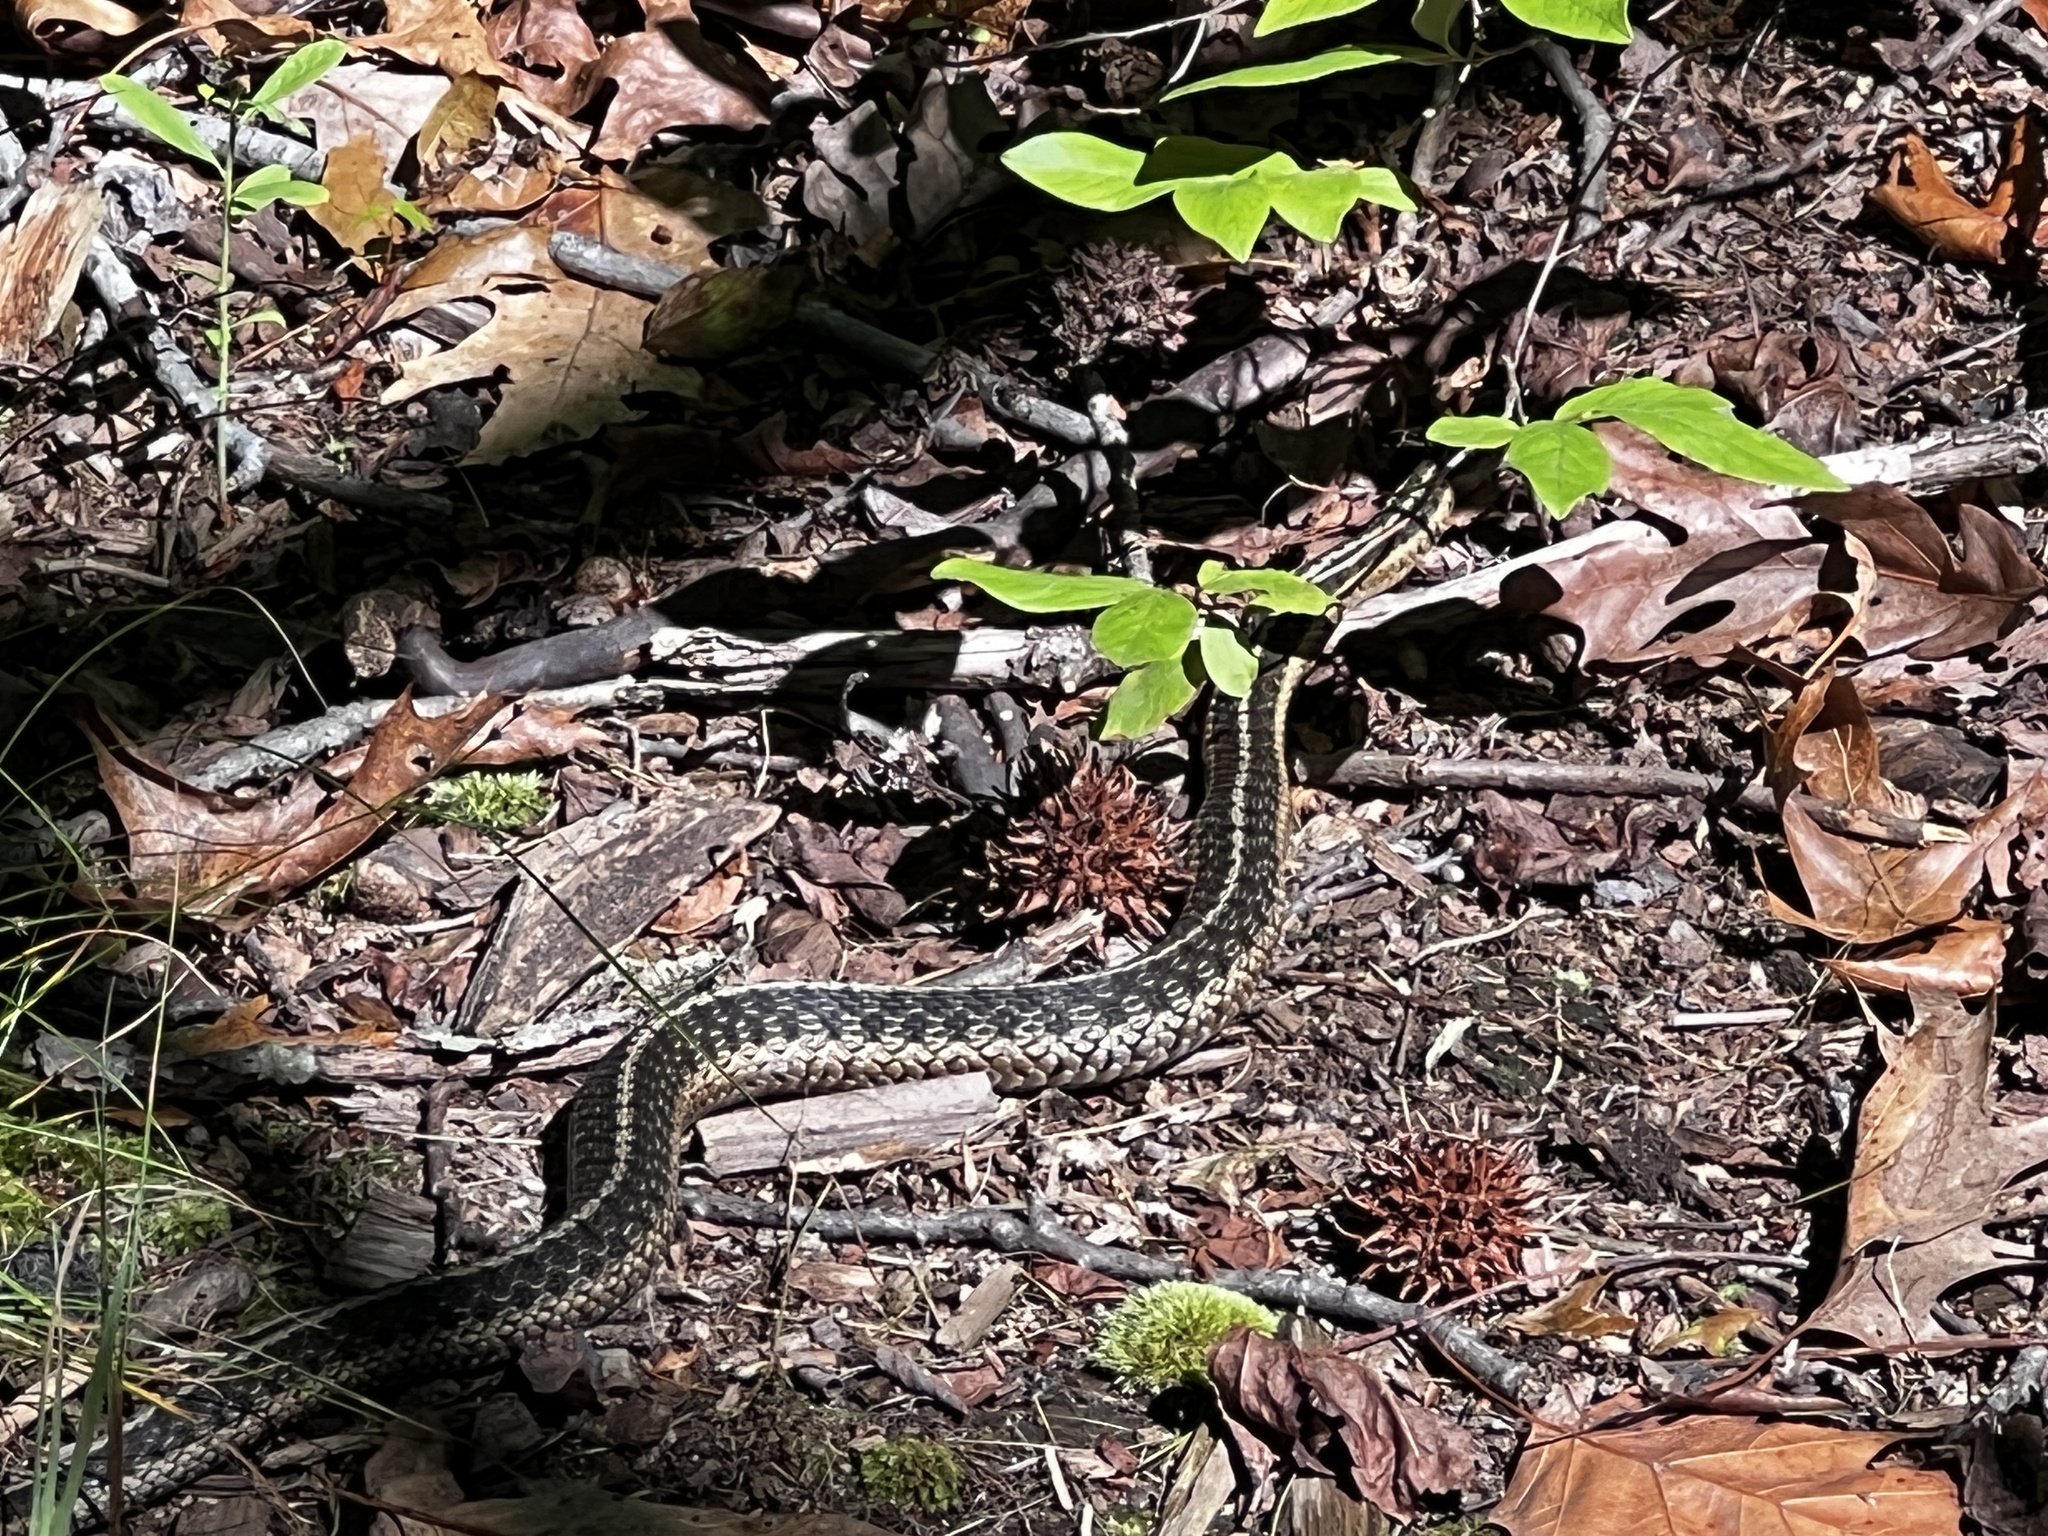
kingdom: Animalia
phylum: Chordata
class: Squamata
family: Colubridae
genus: Thamnophis
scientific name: Thamnophis sirtalis
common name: Common garter snake
